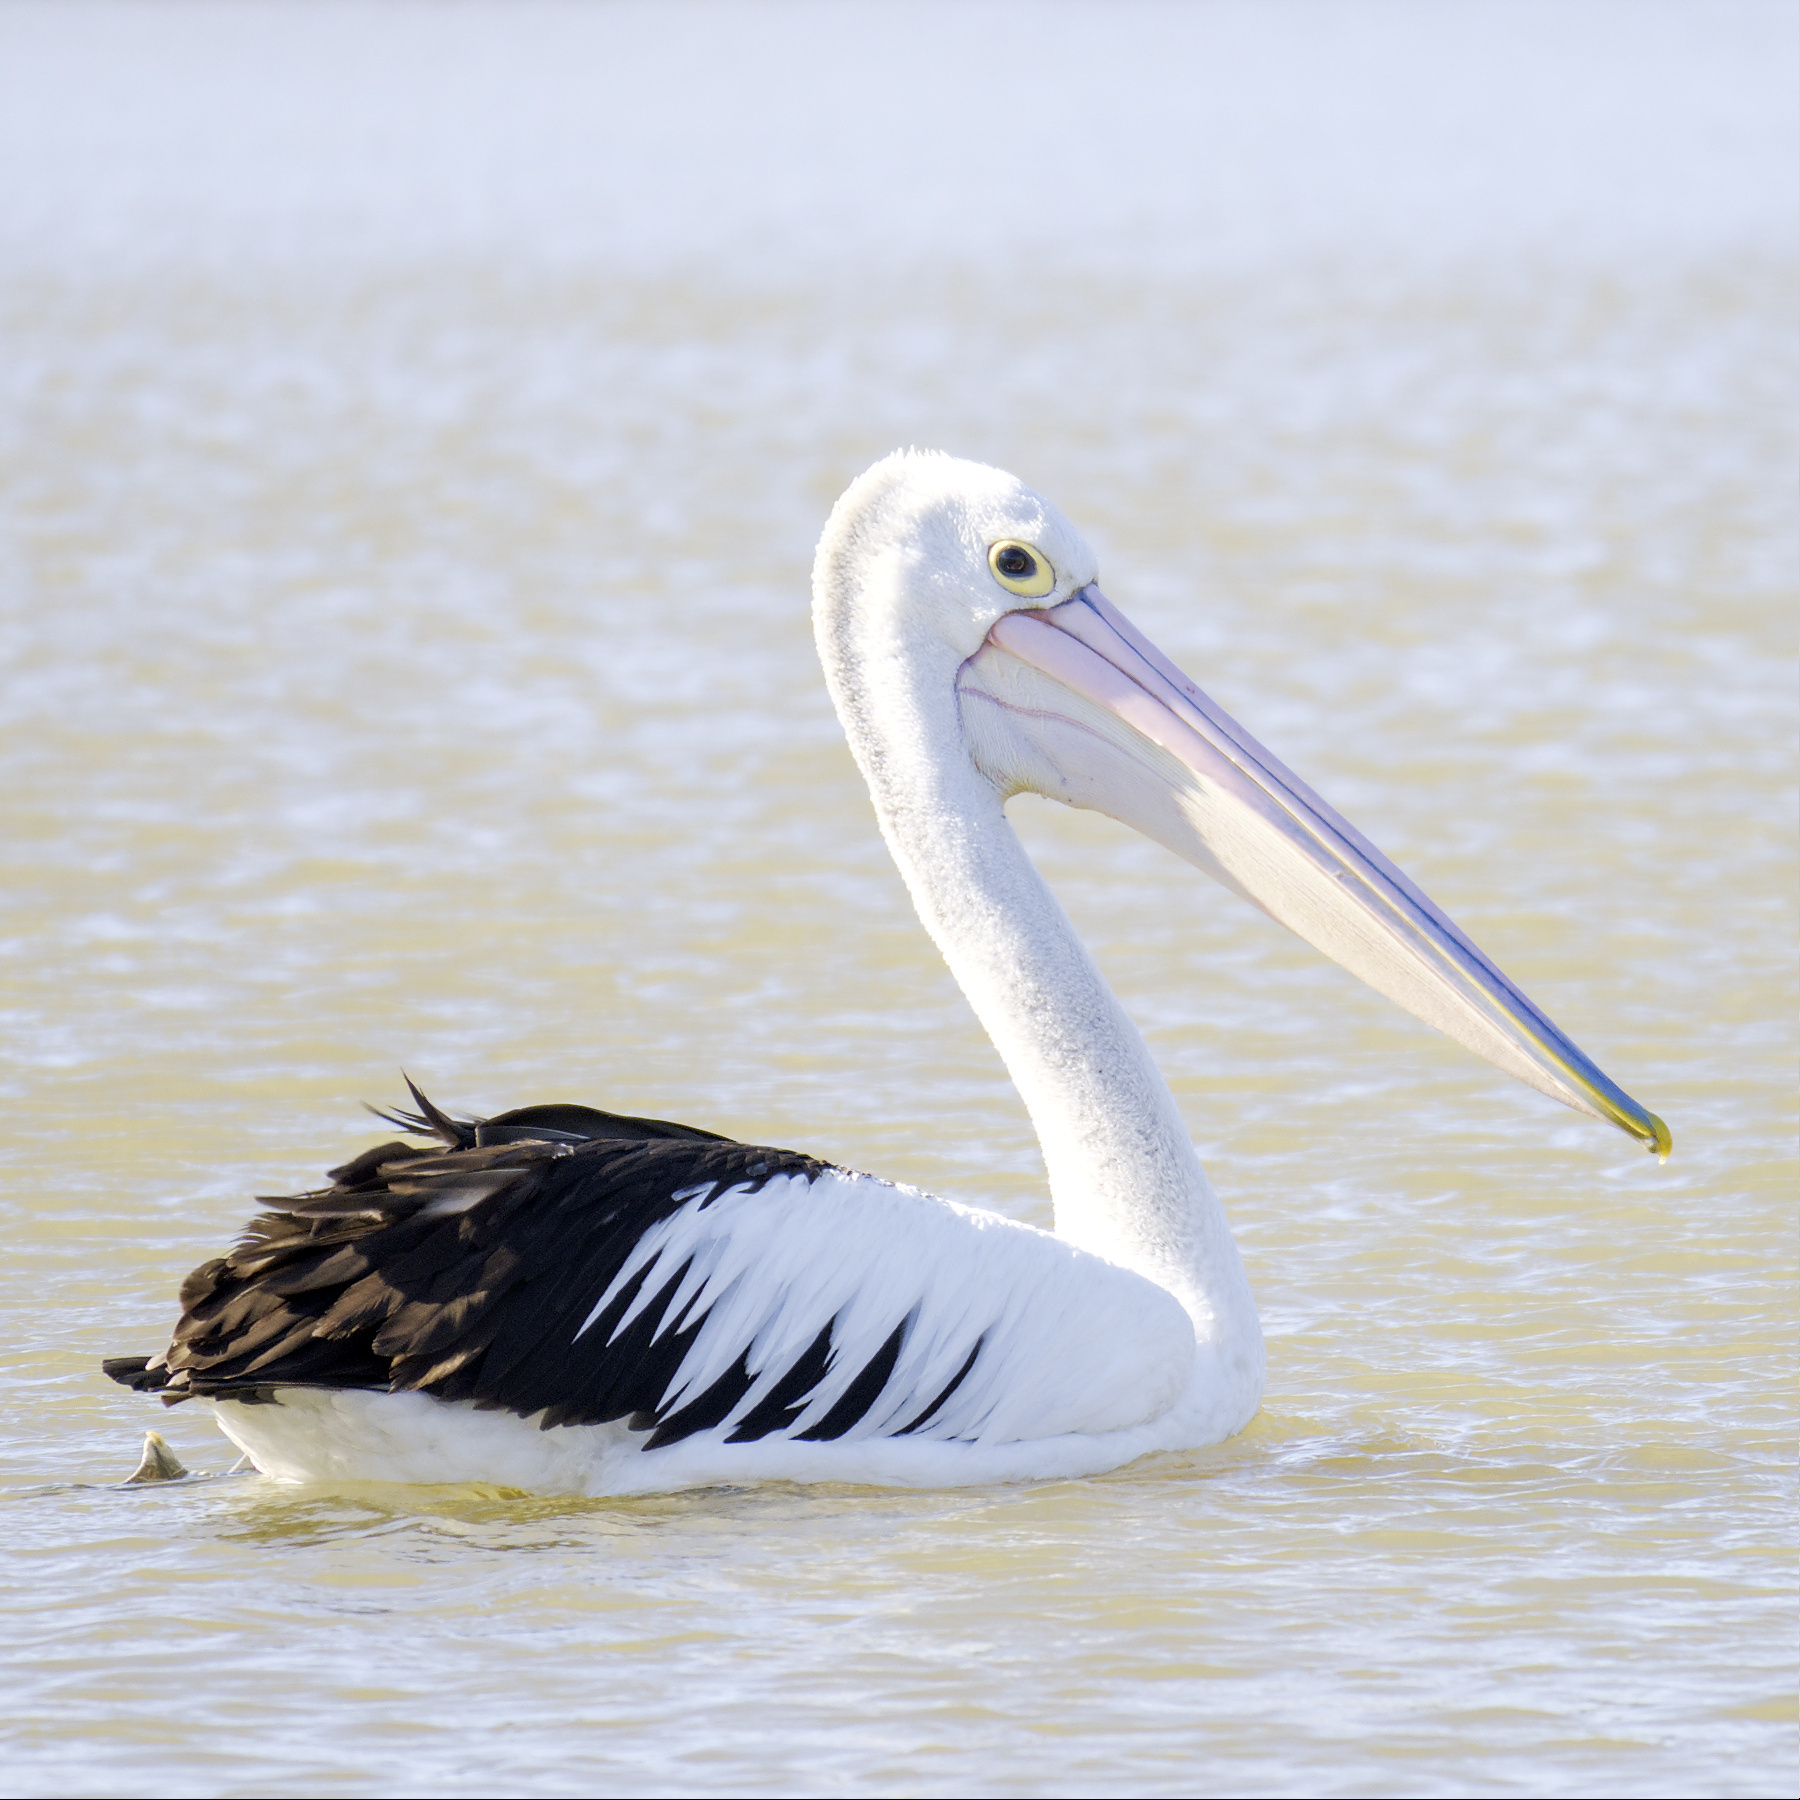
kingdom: Animalia
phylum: Chordata
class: Aves
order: Pelecaniformes
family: Pelecanidae
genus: Pelecanus
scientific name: Pelecanus conspicillatus
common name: Australian pelican
